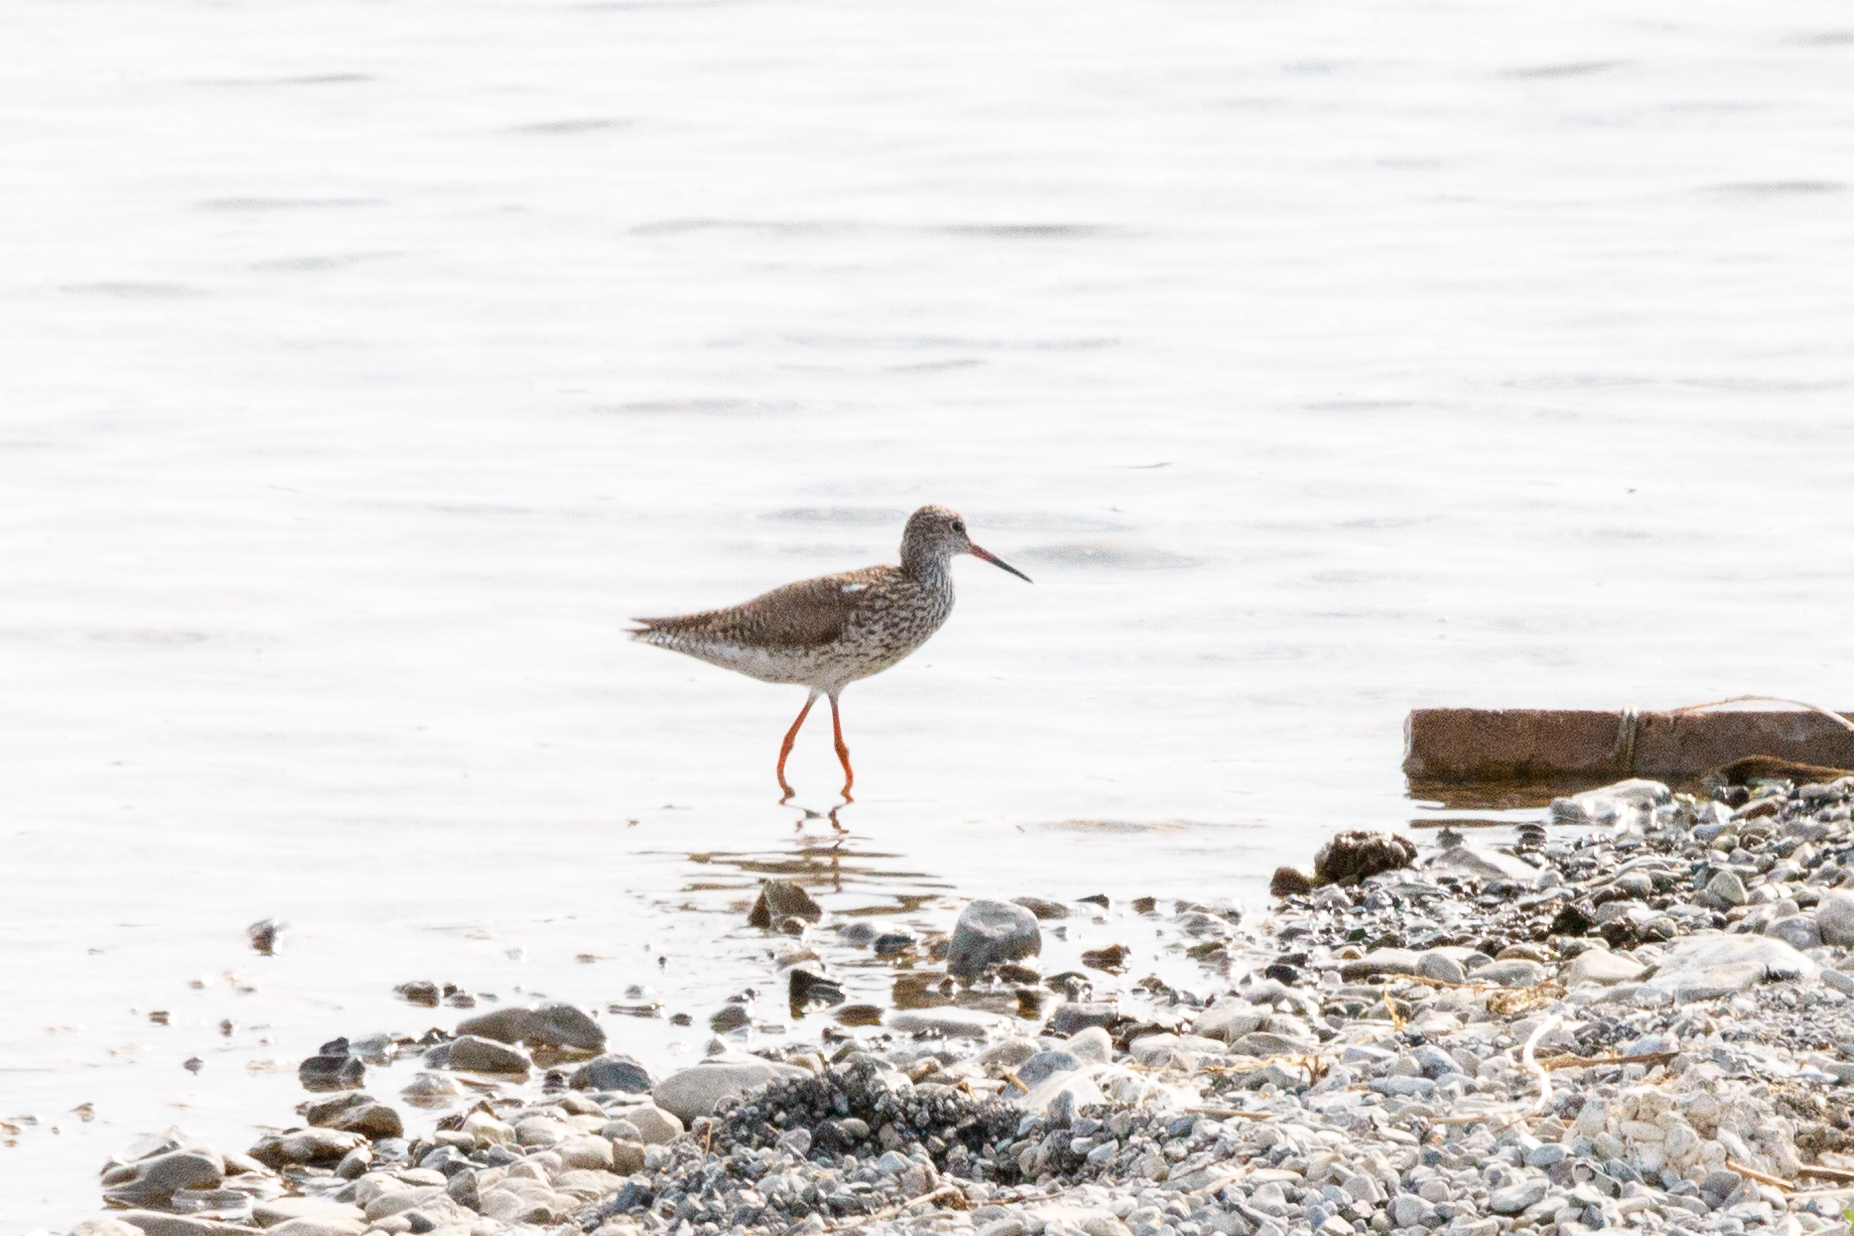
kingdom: Animalia
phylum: Chordata
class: Aves
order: Charadriiformes
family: Scolopacidae
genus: Tringa
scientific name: Tringa totanus
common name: Common redshank
